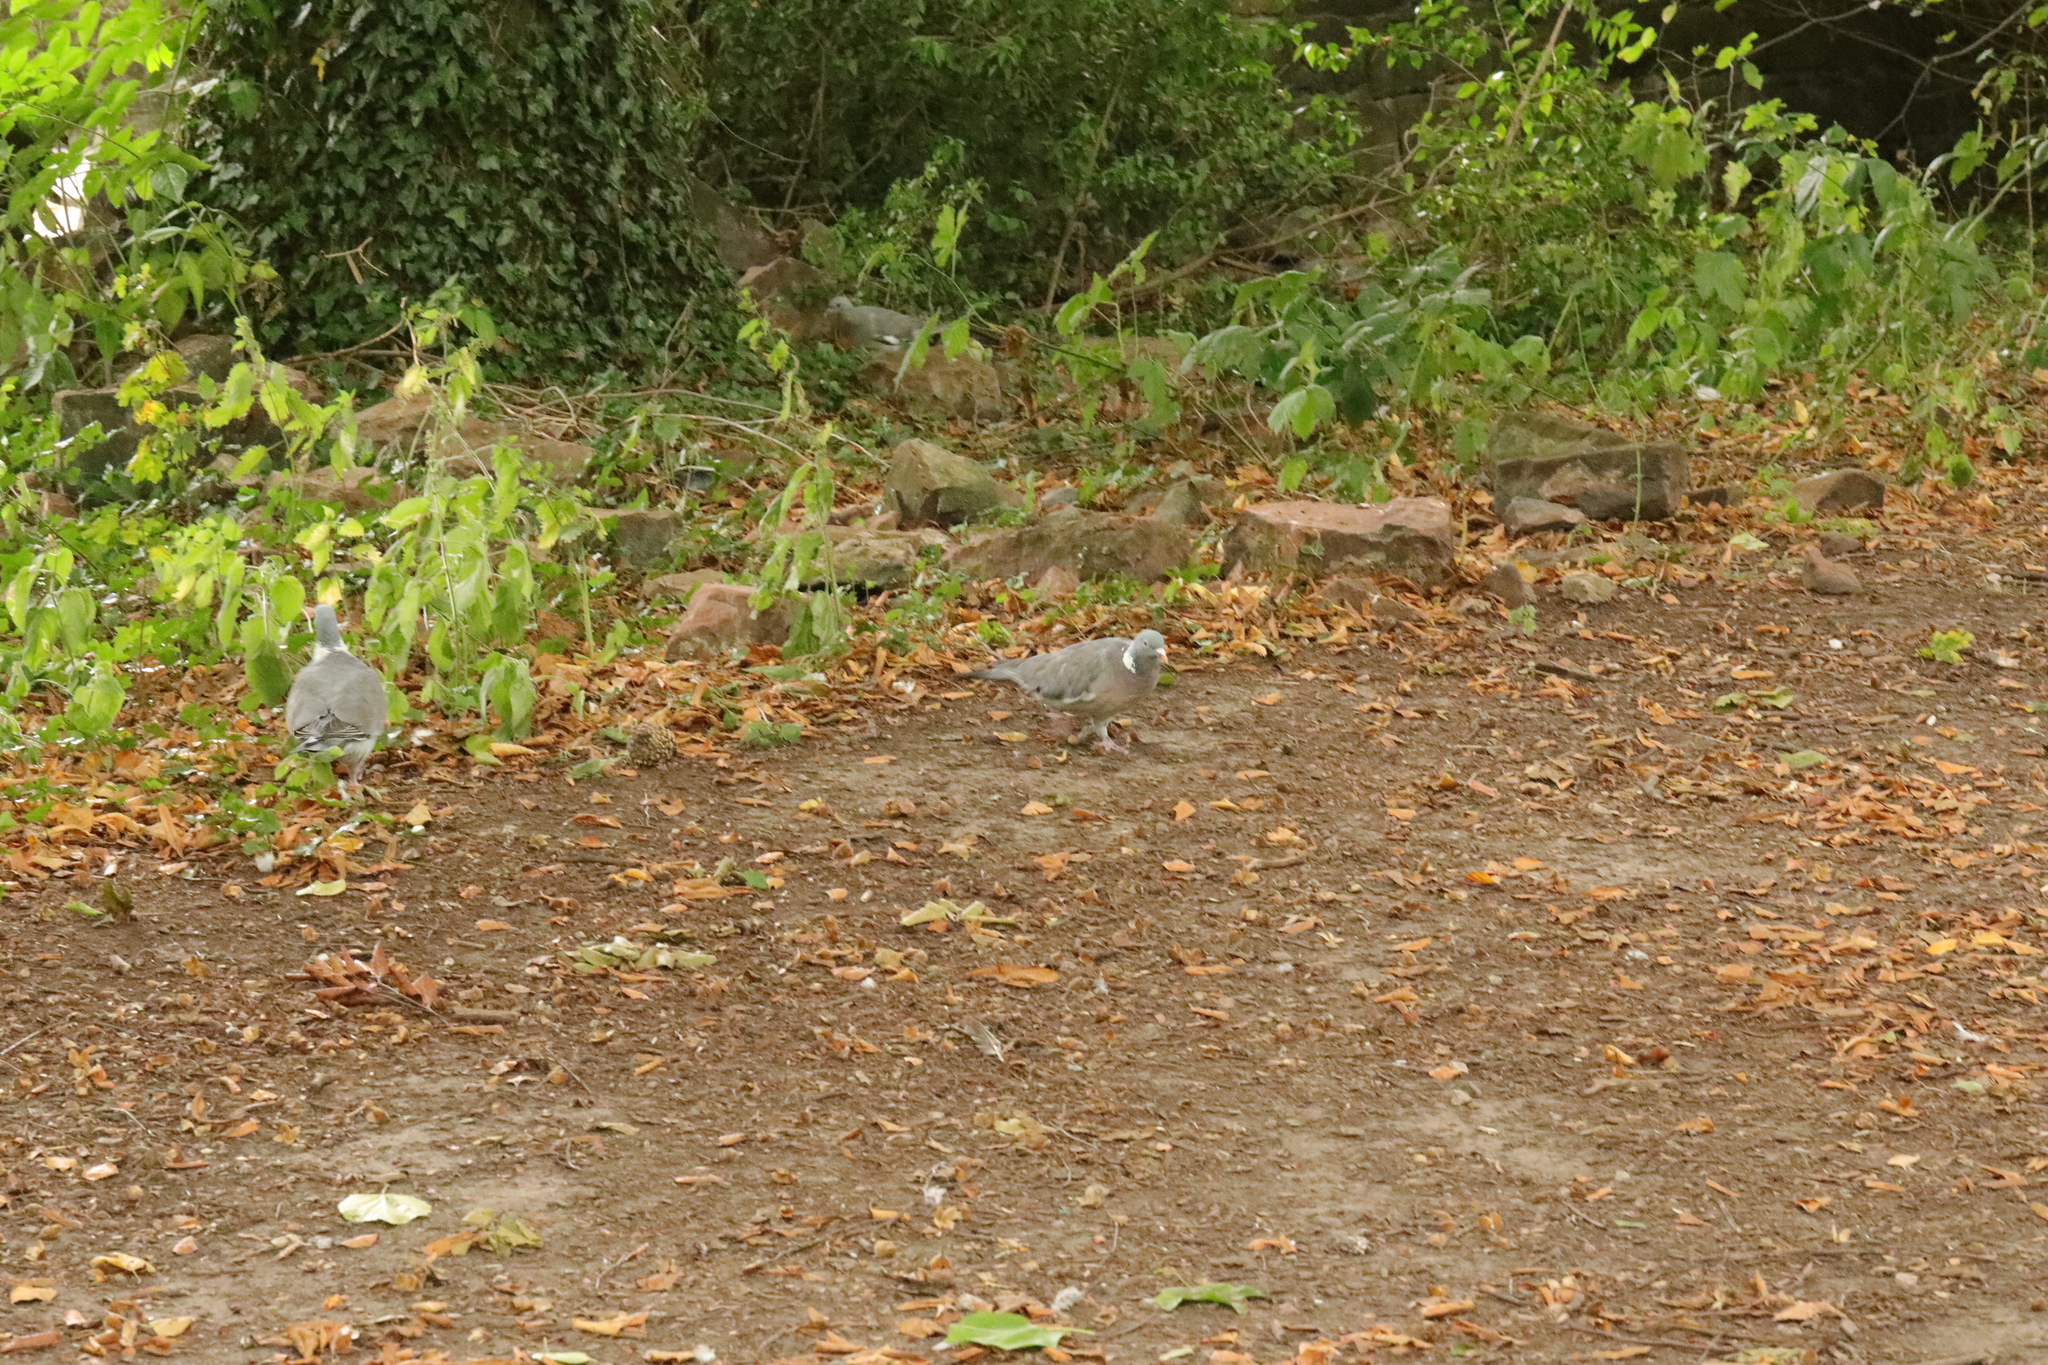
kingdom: Animalia
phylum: Chordata
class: Aves
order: Columbiformes
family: Columbidae
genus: Columba
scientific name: Columba palumbus
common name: Common wood pigeon
